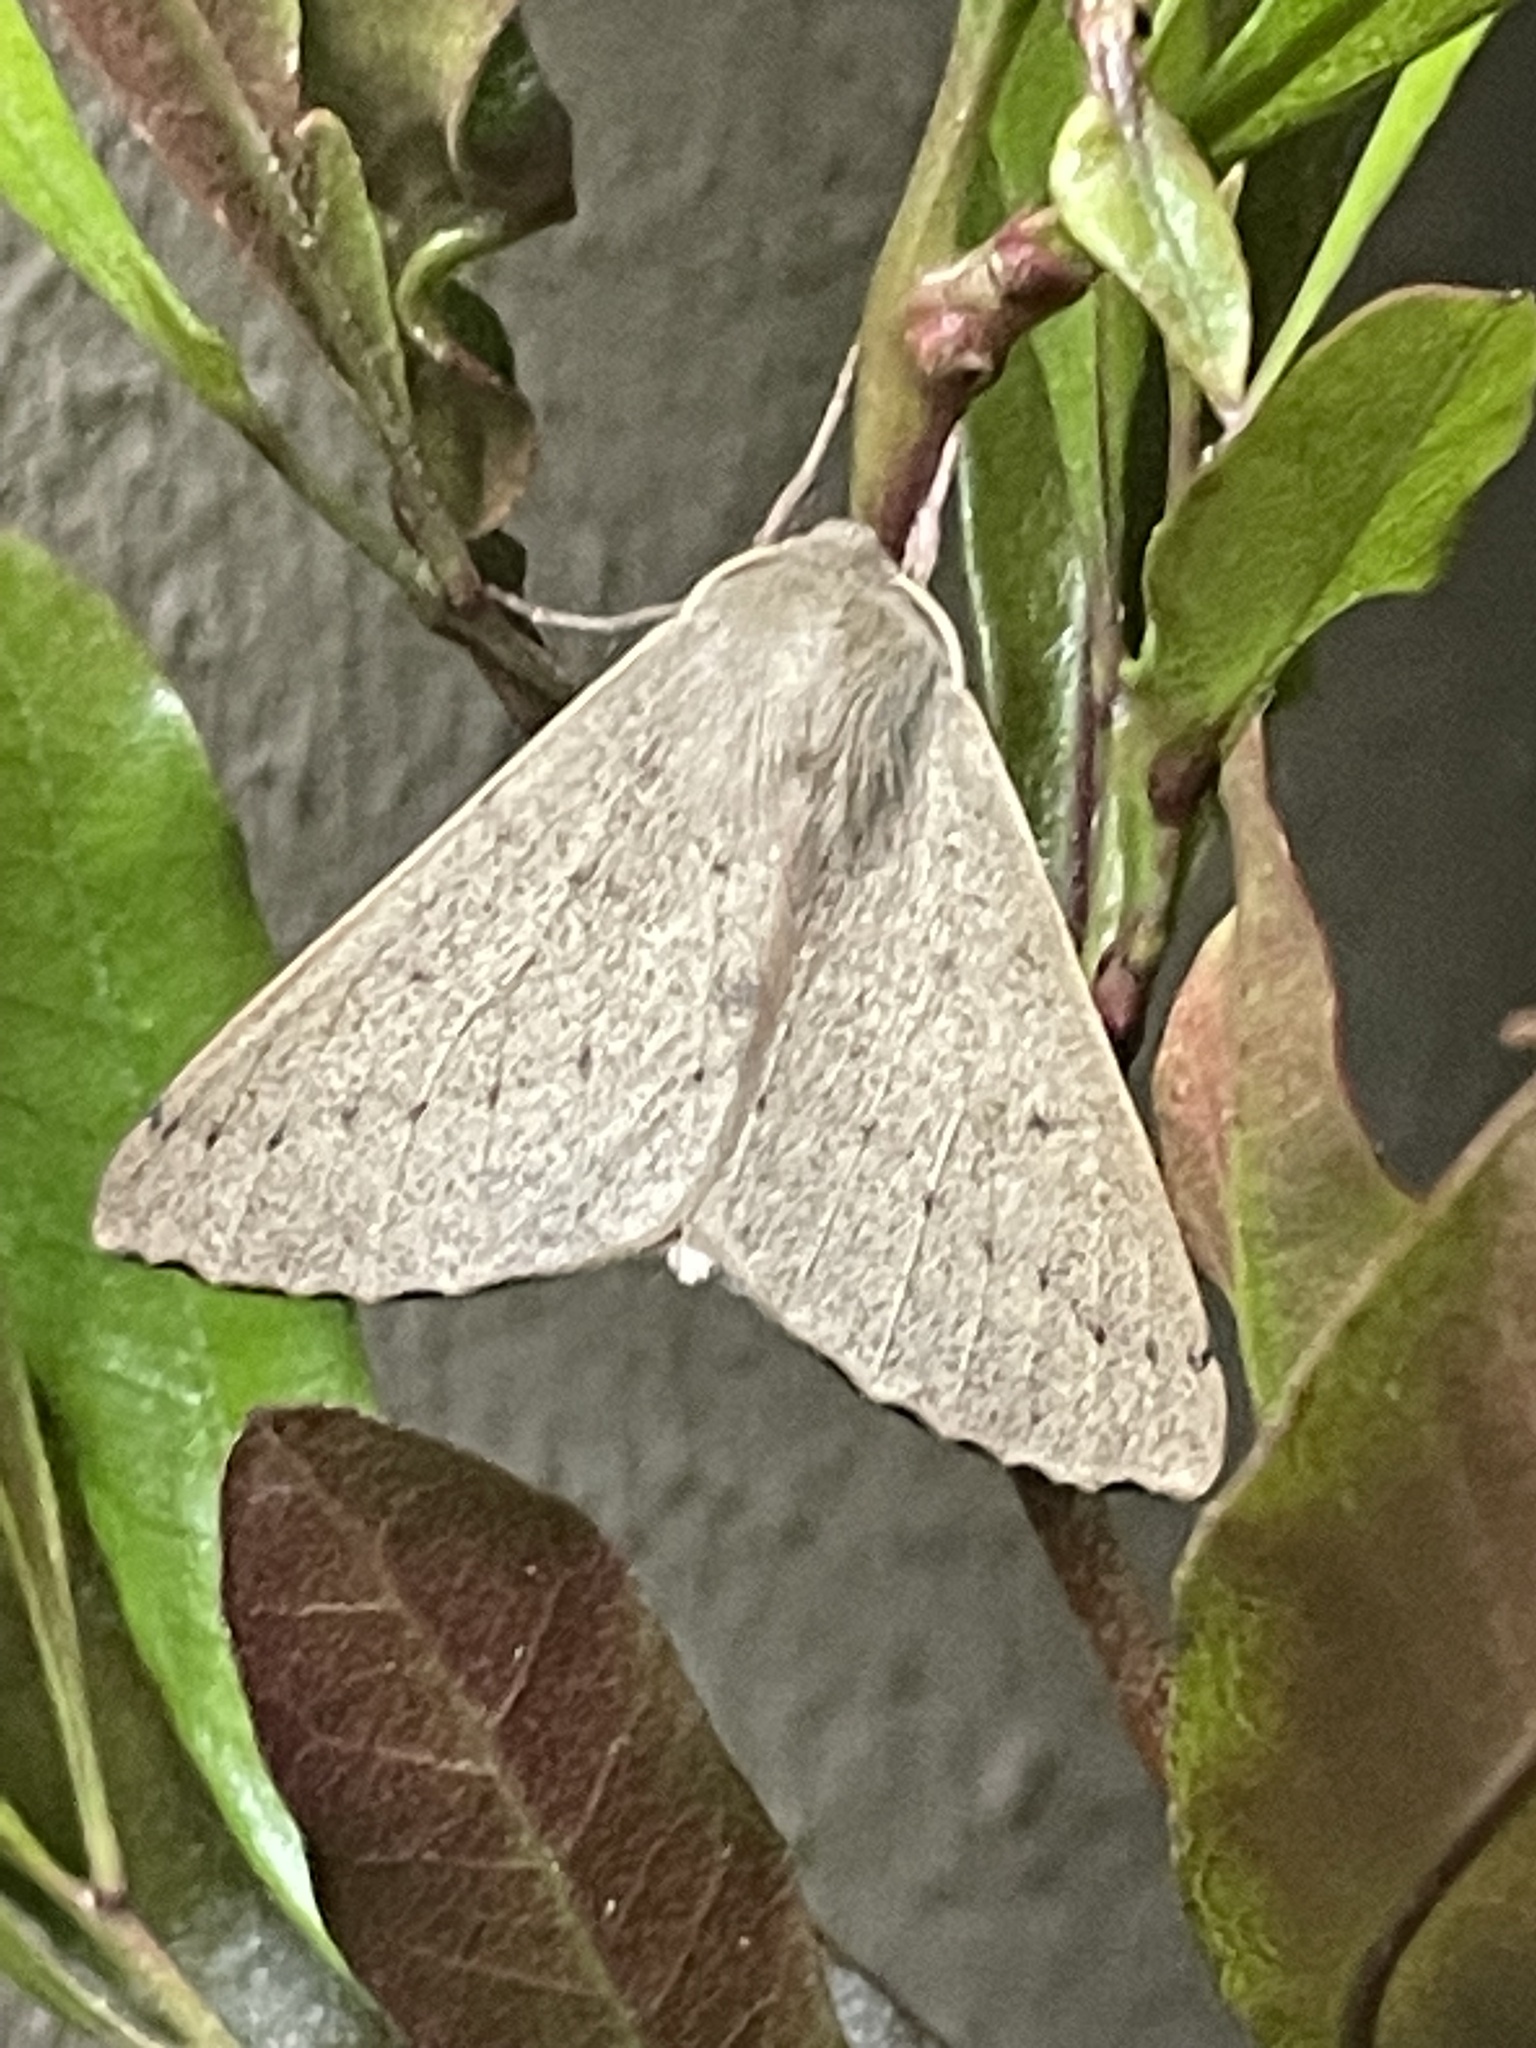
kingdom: Animalia
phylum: Arthropoda
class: Insecta
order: Lepidoptera
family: Geometridae
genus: Arhodia
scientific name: Arhodia lasiocamparia
